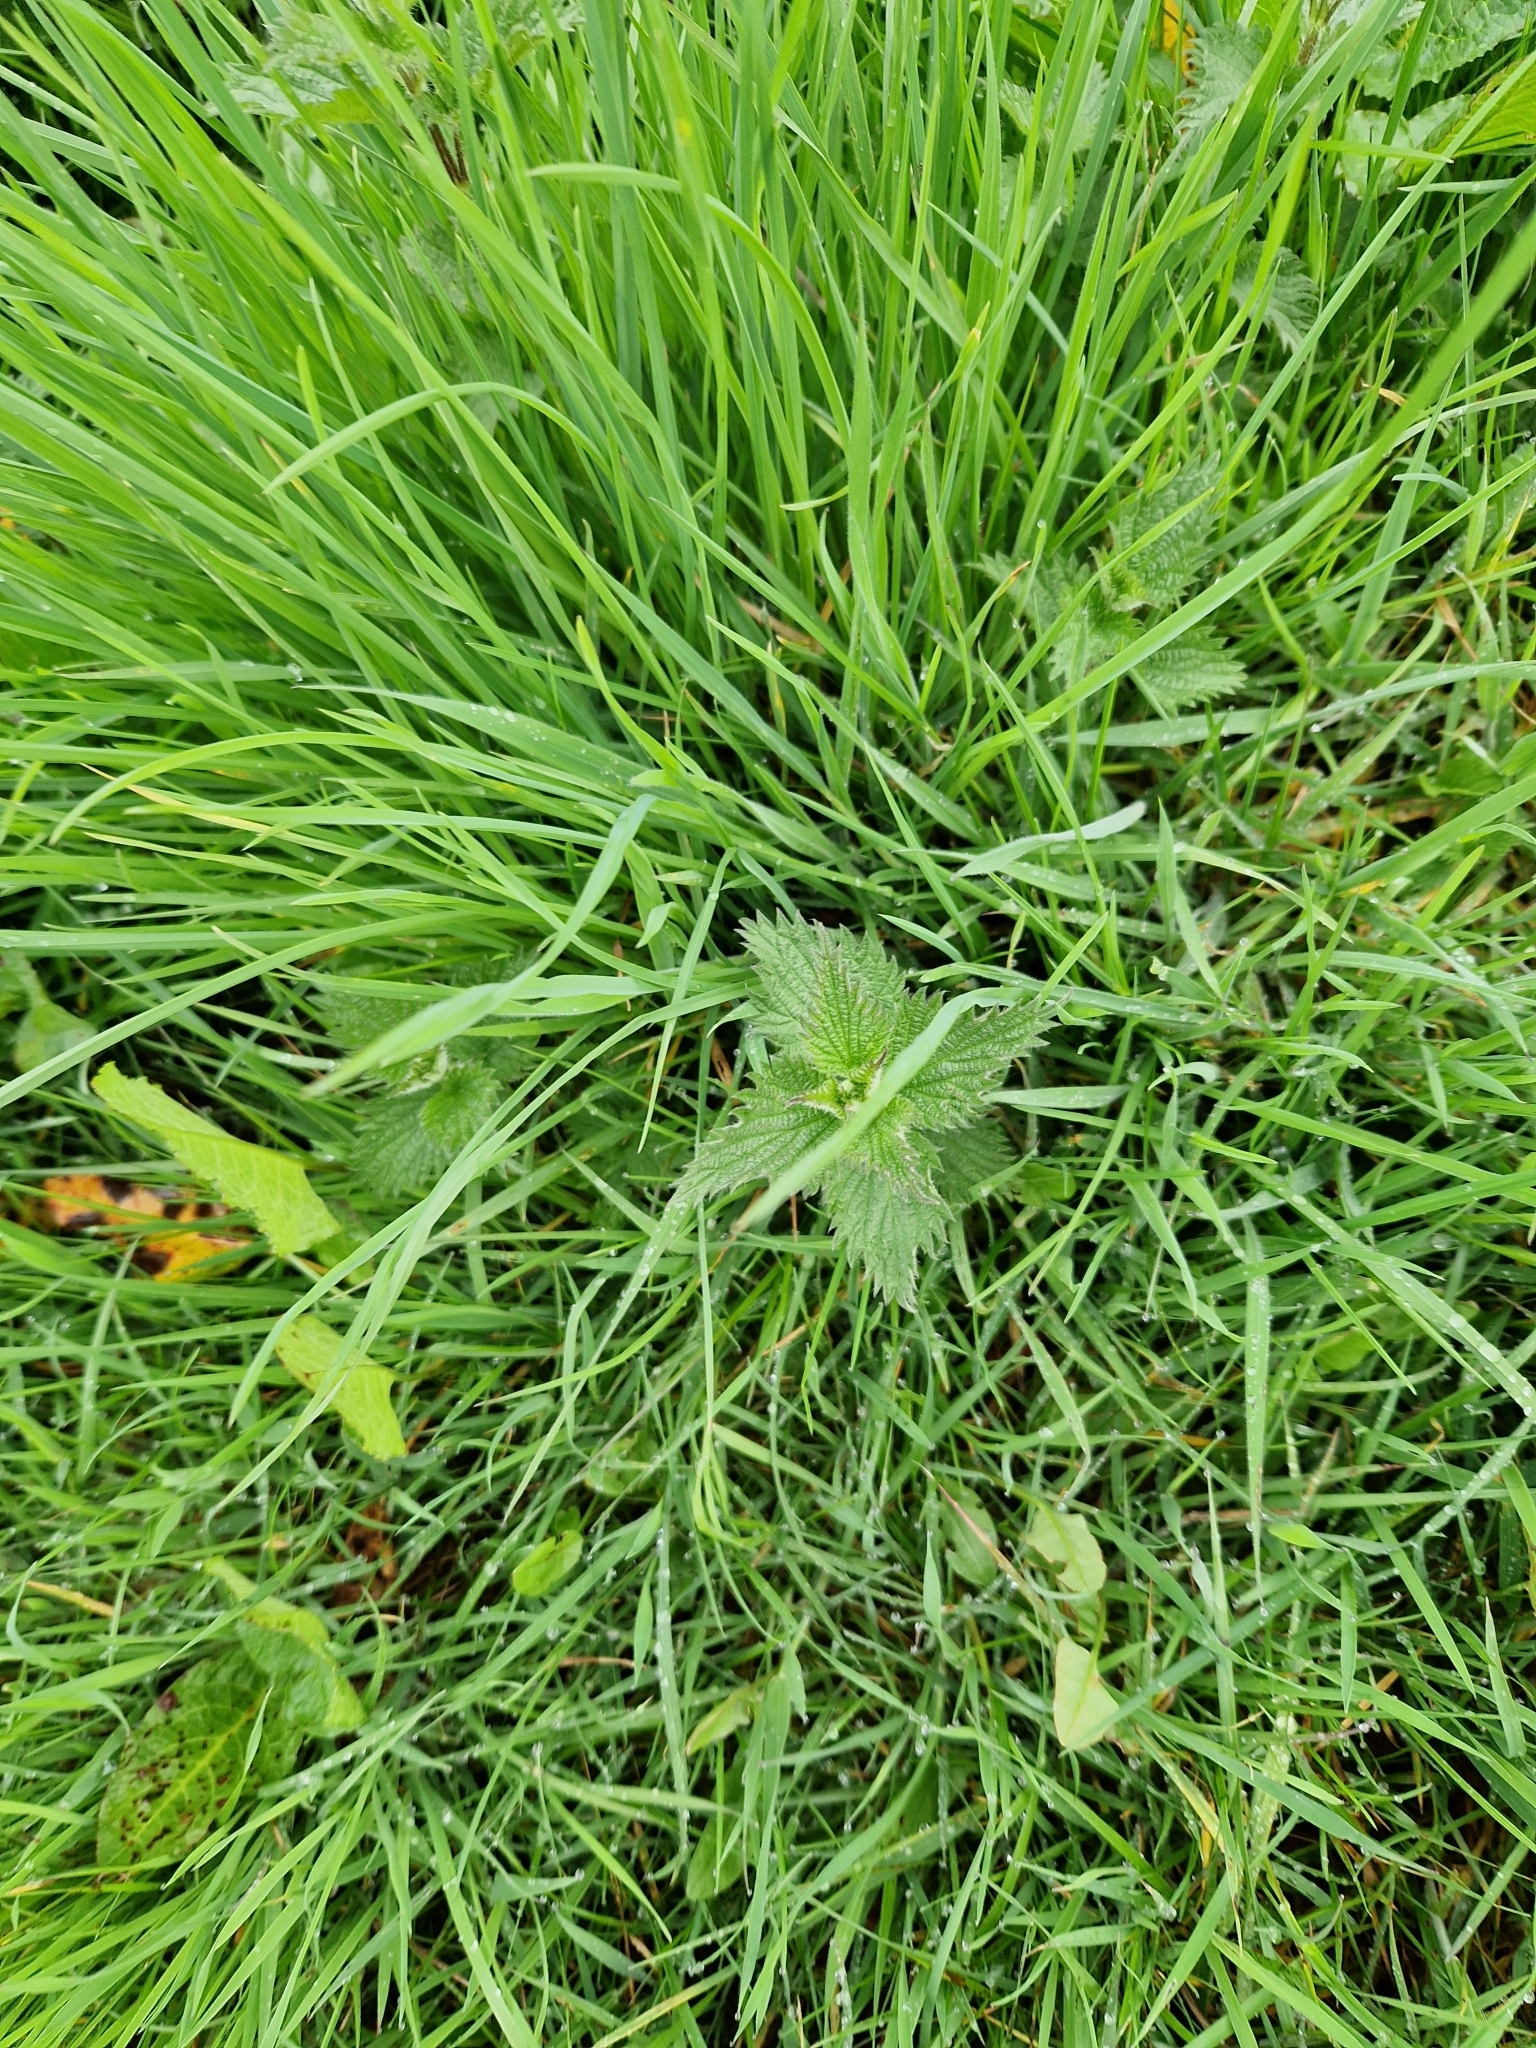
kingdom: Plantae
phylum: Tracheophyta
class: Magnoliopsida
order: Rosales
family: Urticaceae
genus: Urtica
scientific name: Urtica dioica
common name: Common nettle
